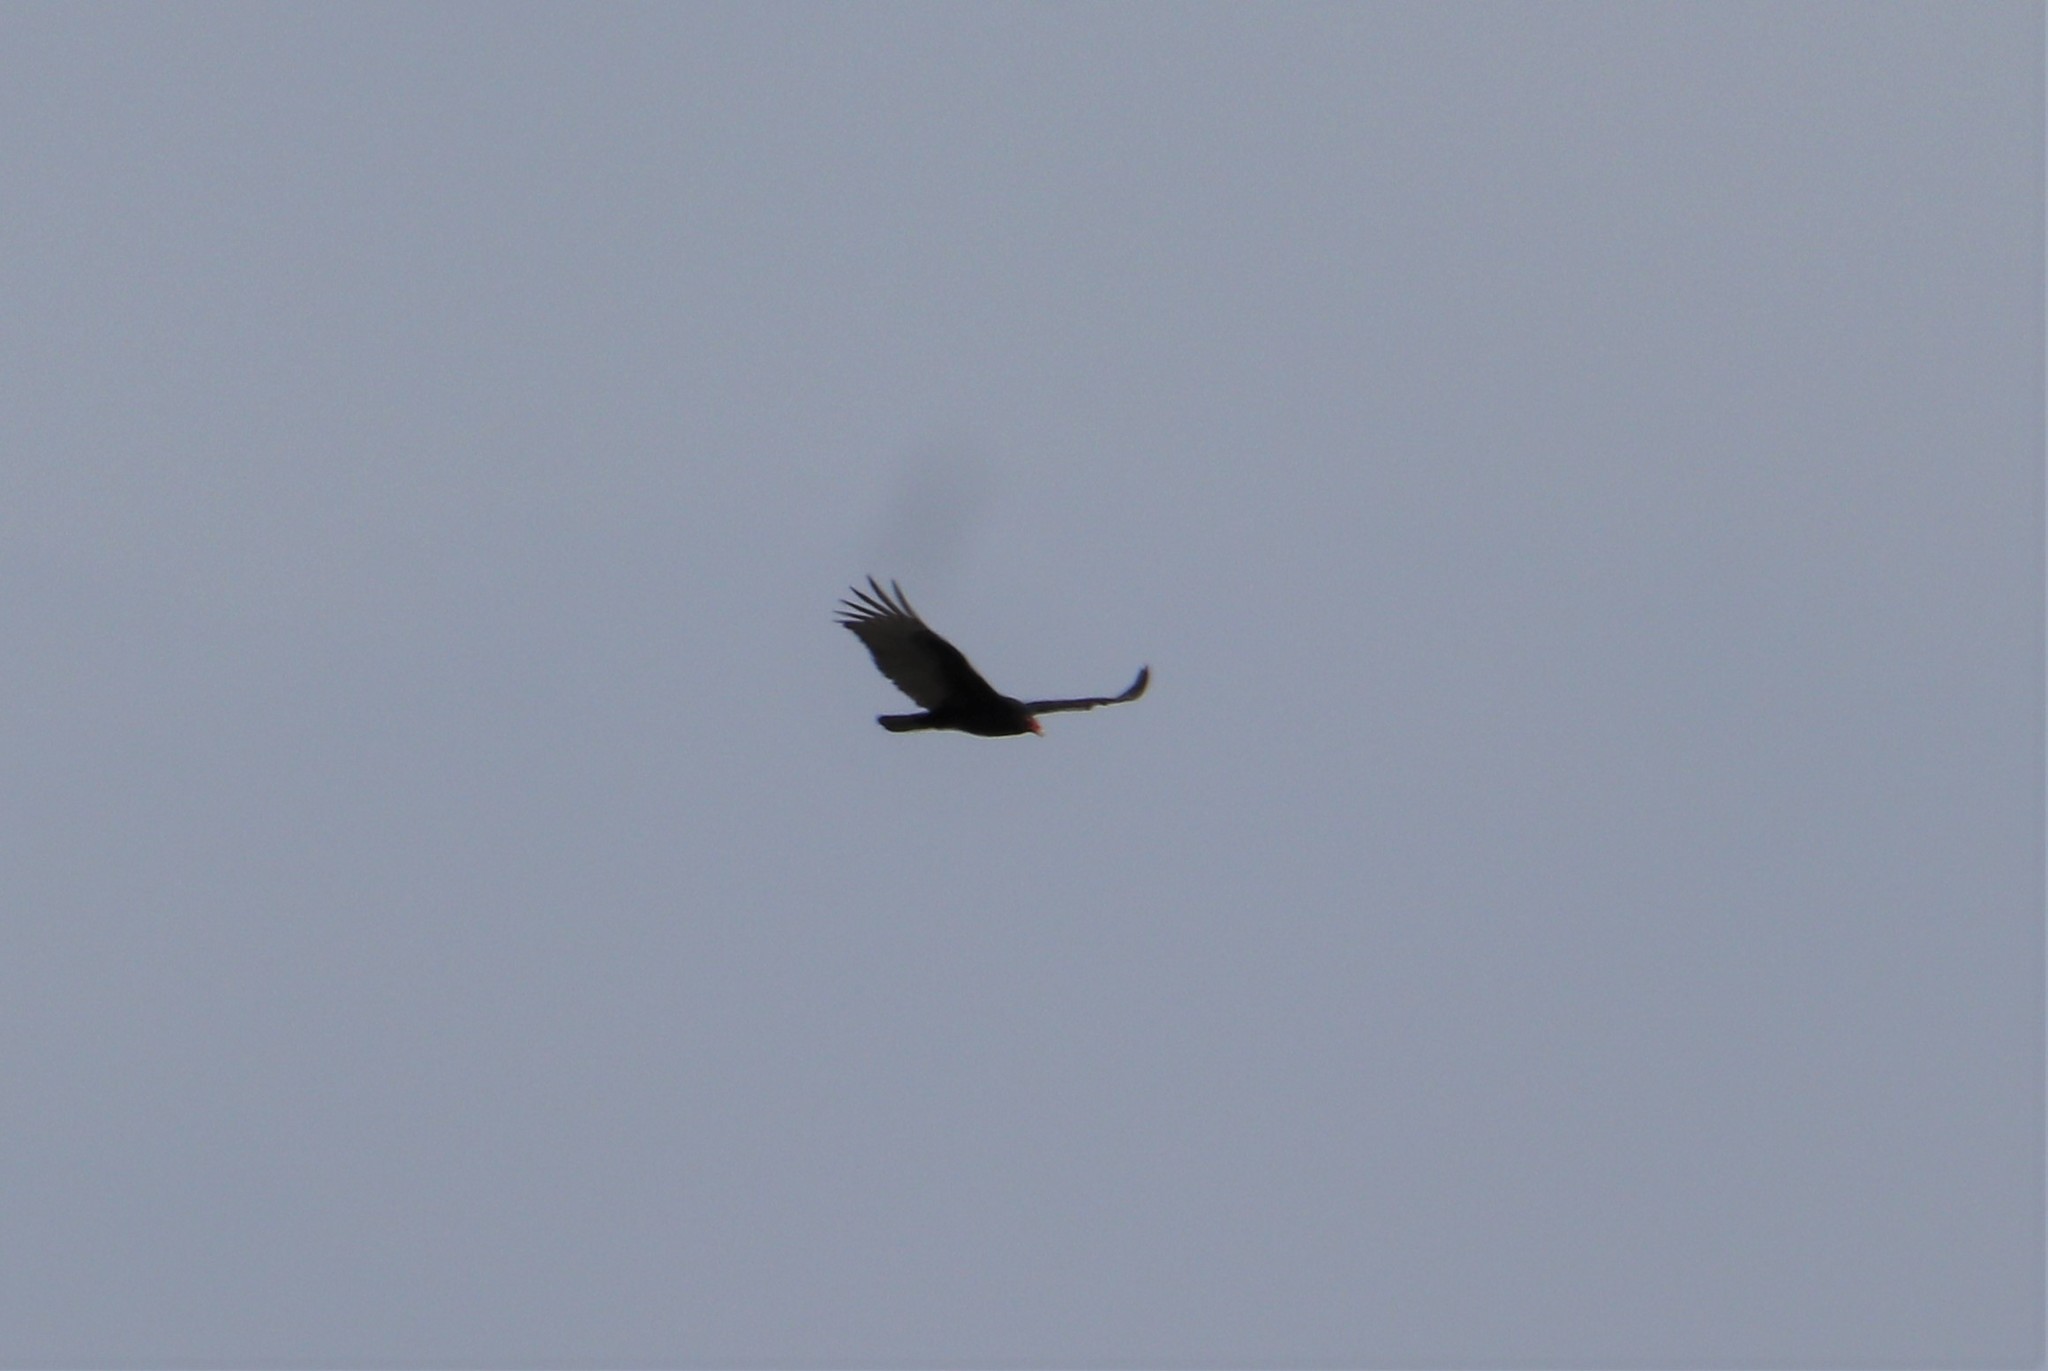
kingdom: Animalia
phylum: Chordata
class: Aves
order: Accipitriformes
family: Cathartidae
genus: Cathartes
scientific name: Cathartes aura
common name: Turkey vulture
